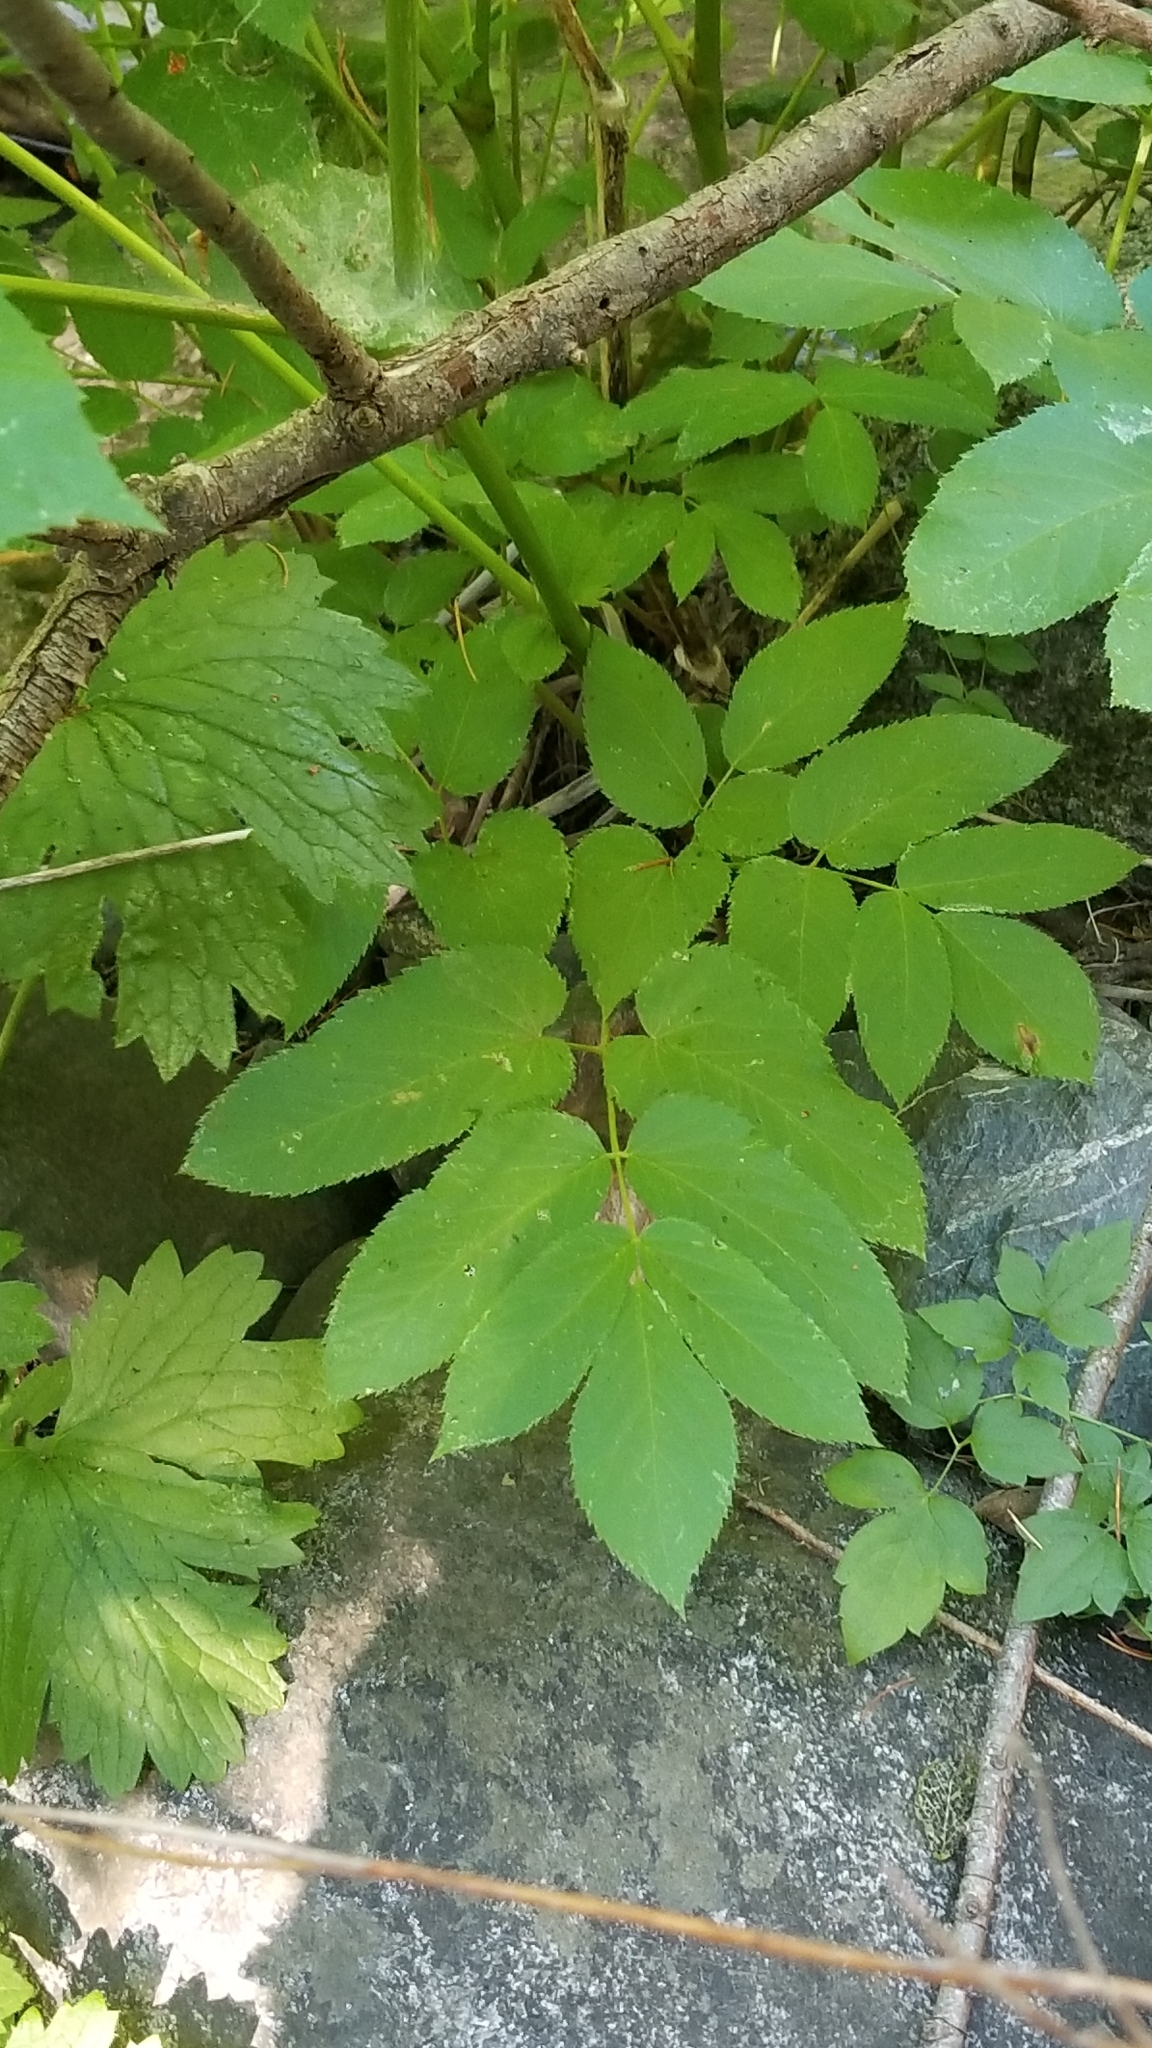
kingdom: Plantae
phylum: Tracheophyta
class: Magnoliopsida
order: Apiales
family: Araliaceae
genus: Aralia
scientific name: Aralia californica
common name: California-ginseng
